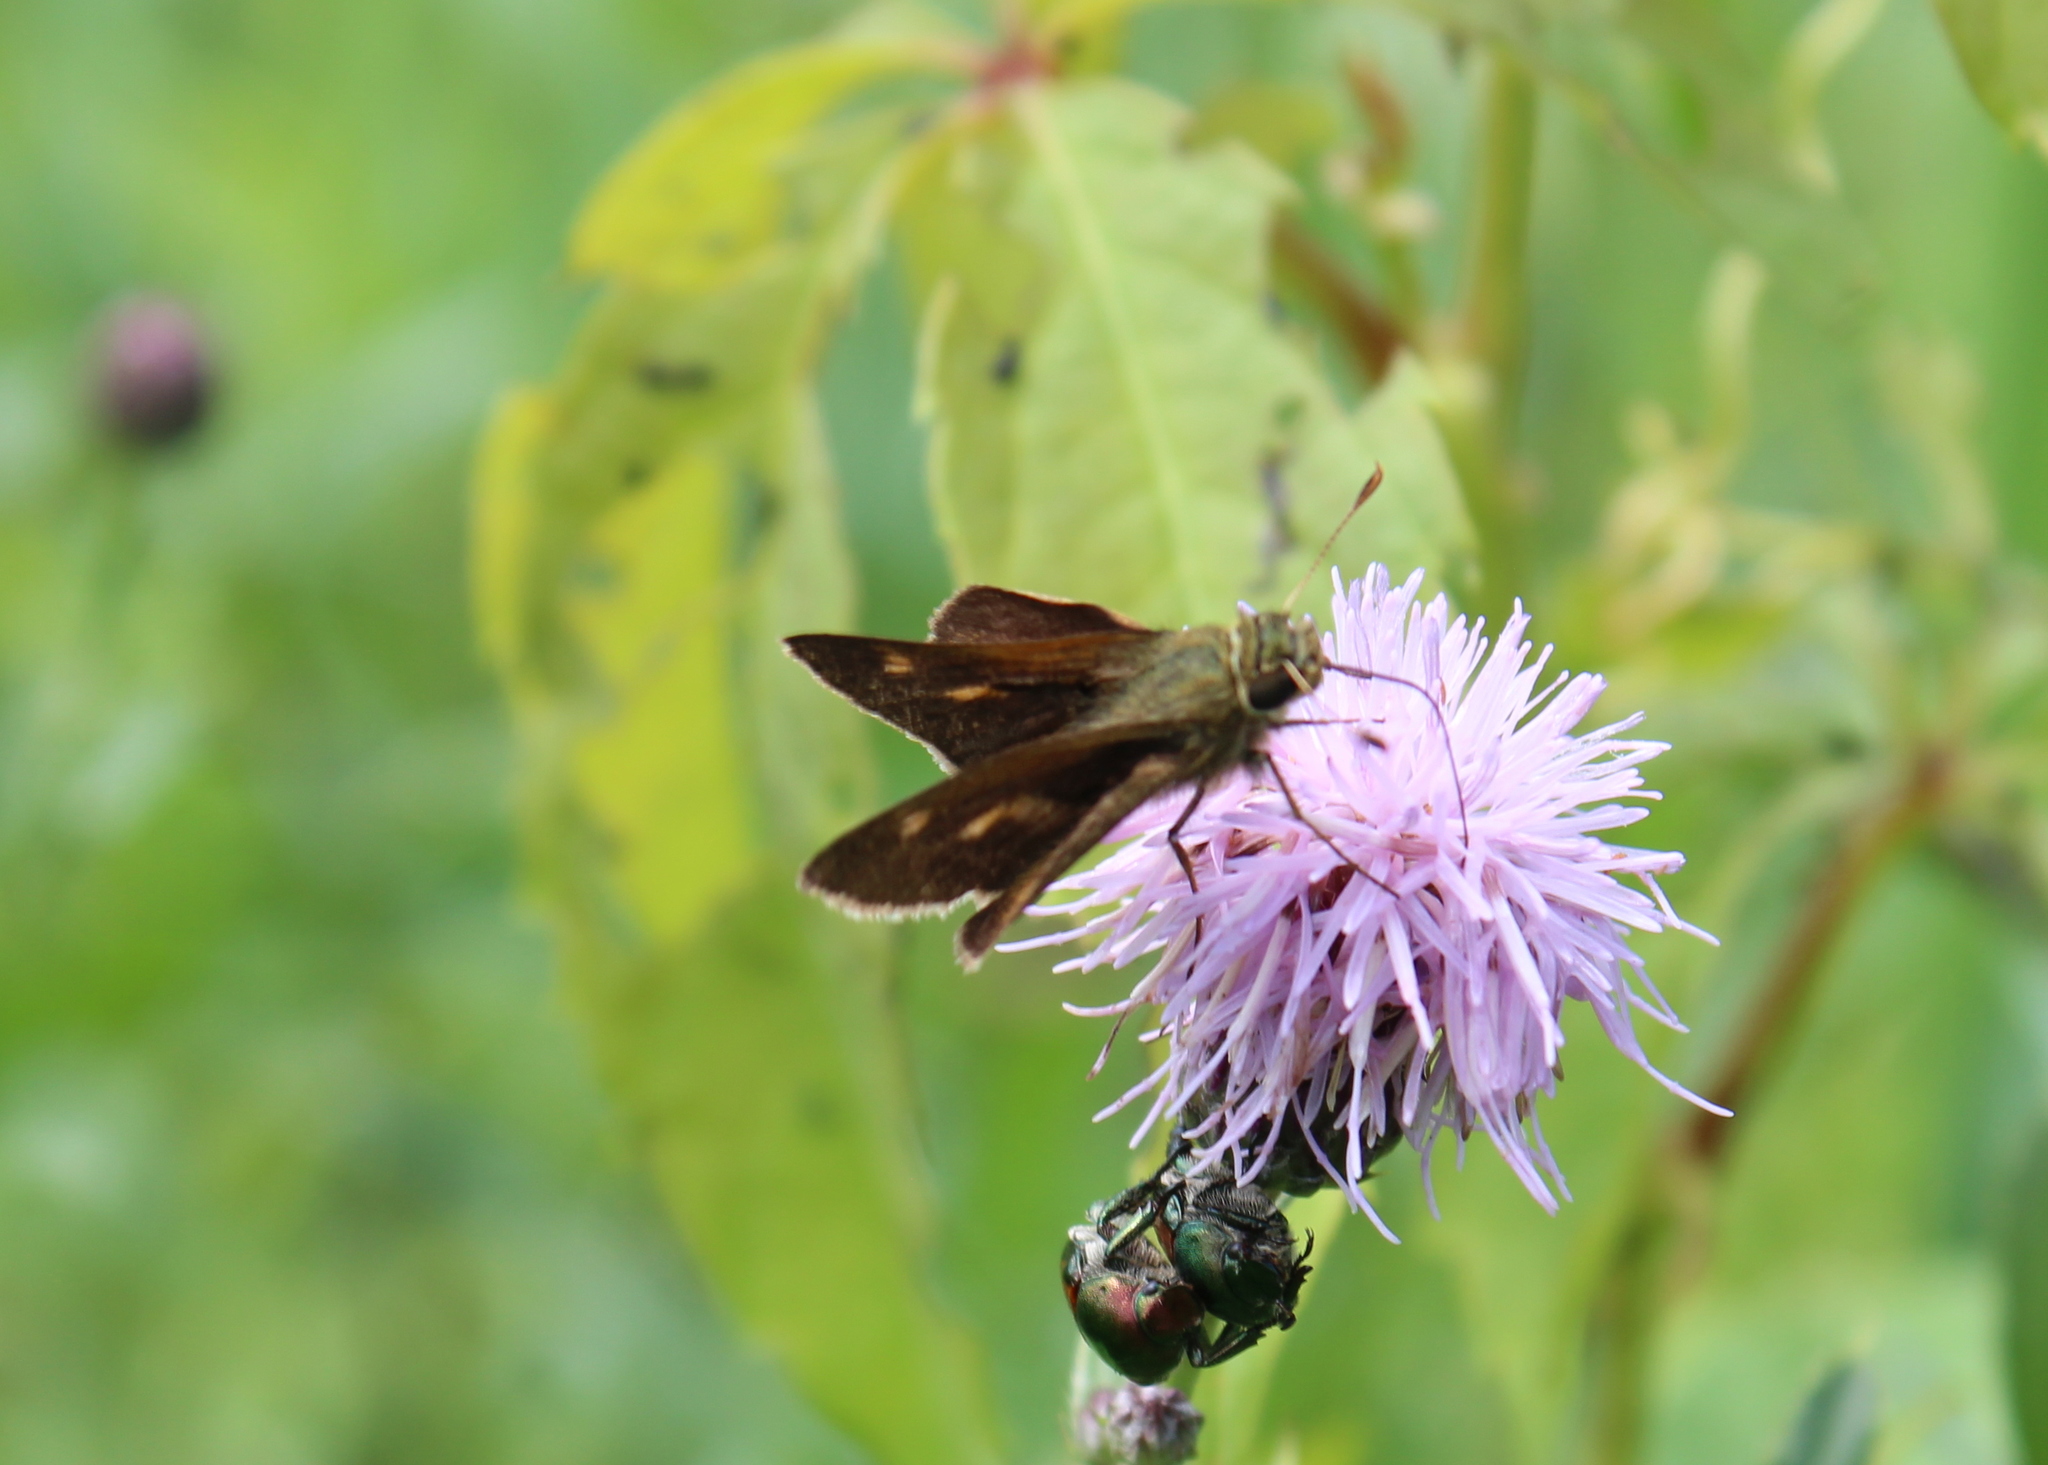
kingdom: Animalia
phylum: Arthropoda
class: Insecta
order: Lepidoptera
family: Hesperiidae
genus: Polites
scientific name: Polites egeremet
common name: Northern broken-dash
